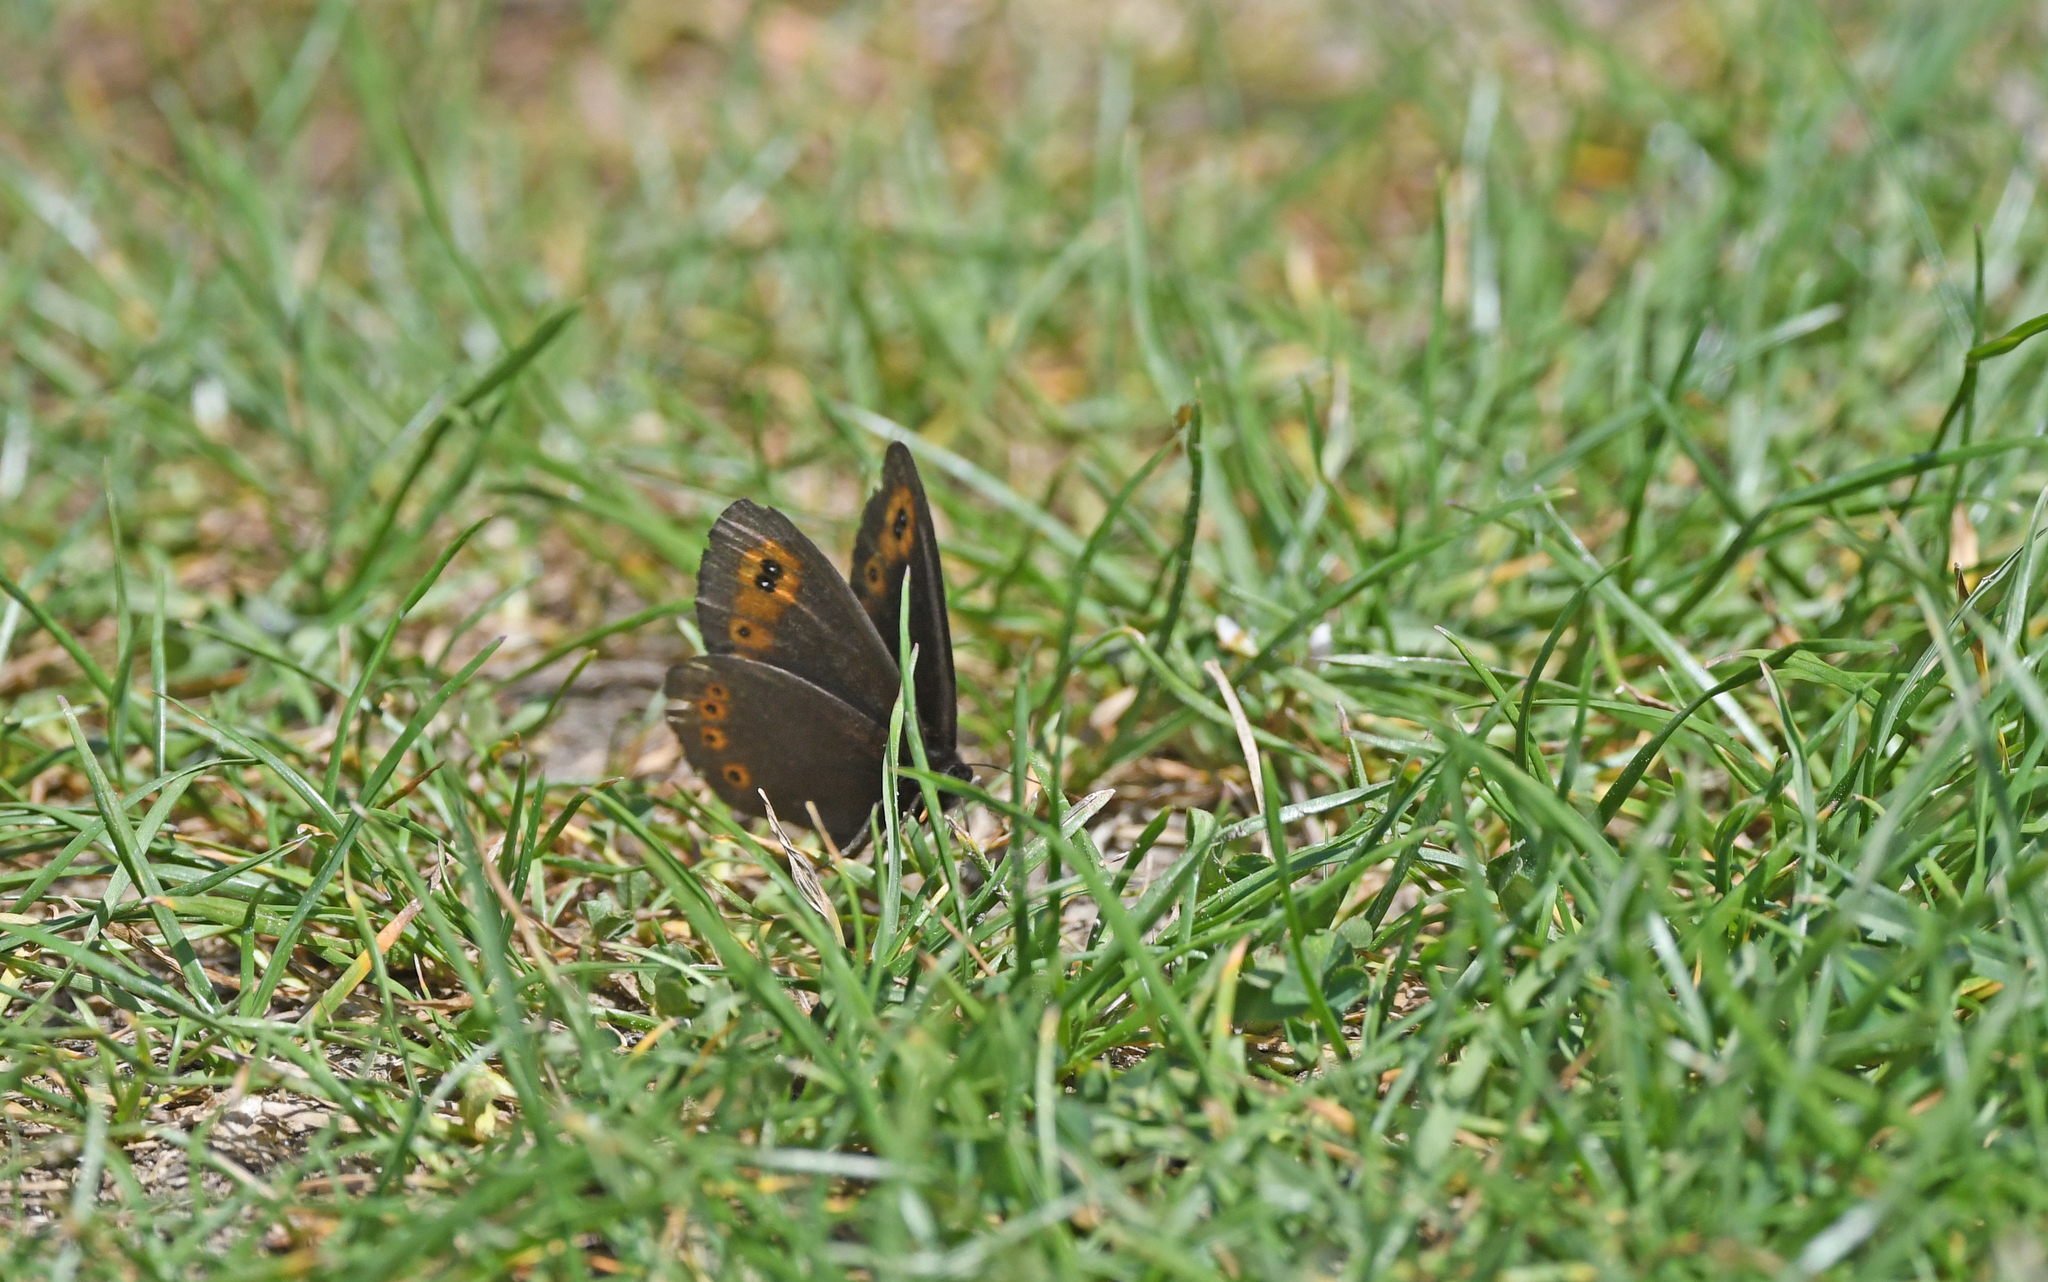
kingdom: Animalia
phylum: Arthropoda
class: Insecta
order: Lepidoptera
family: Nymphalidae
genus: Erebia
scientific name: Erebia medusa
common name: Woodland ringlet
